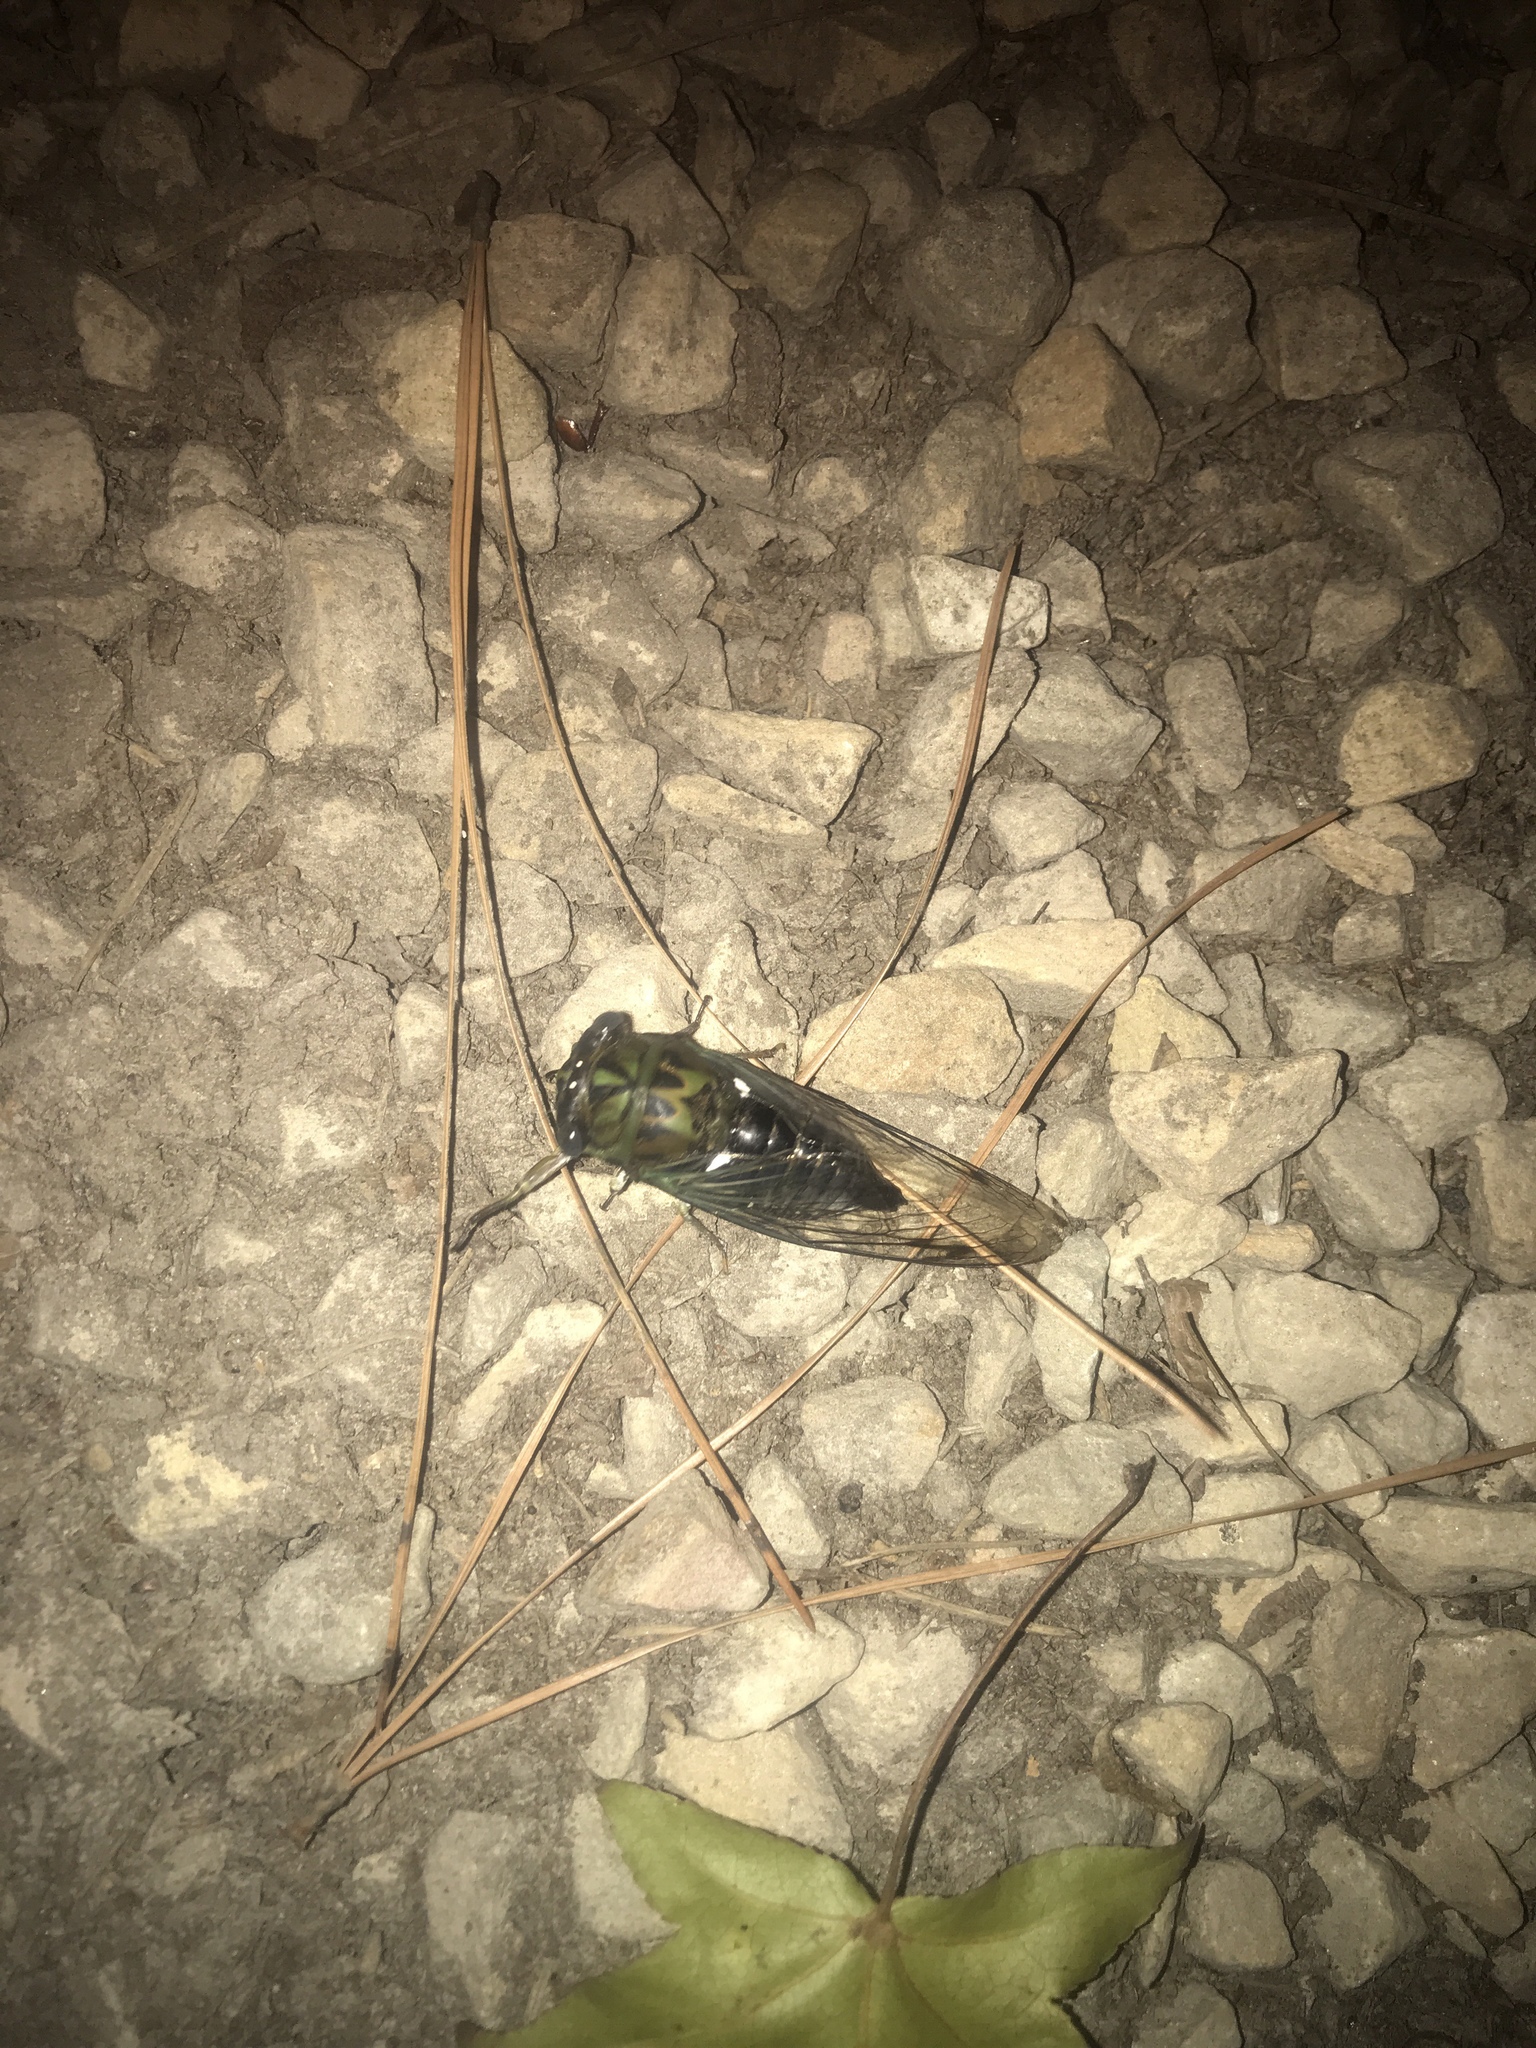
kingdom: Animalia
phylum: Arthropoda
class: Insecta
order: Hemiptera
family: Cicadidae
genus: Neotibicen
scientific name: Neotibicen pruinosus
